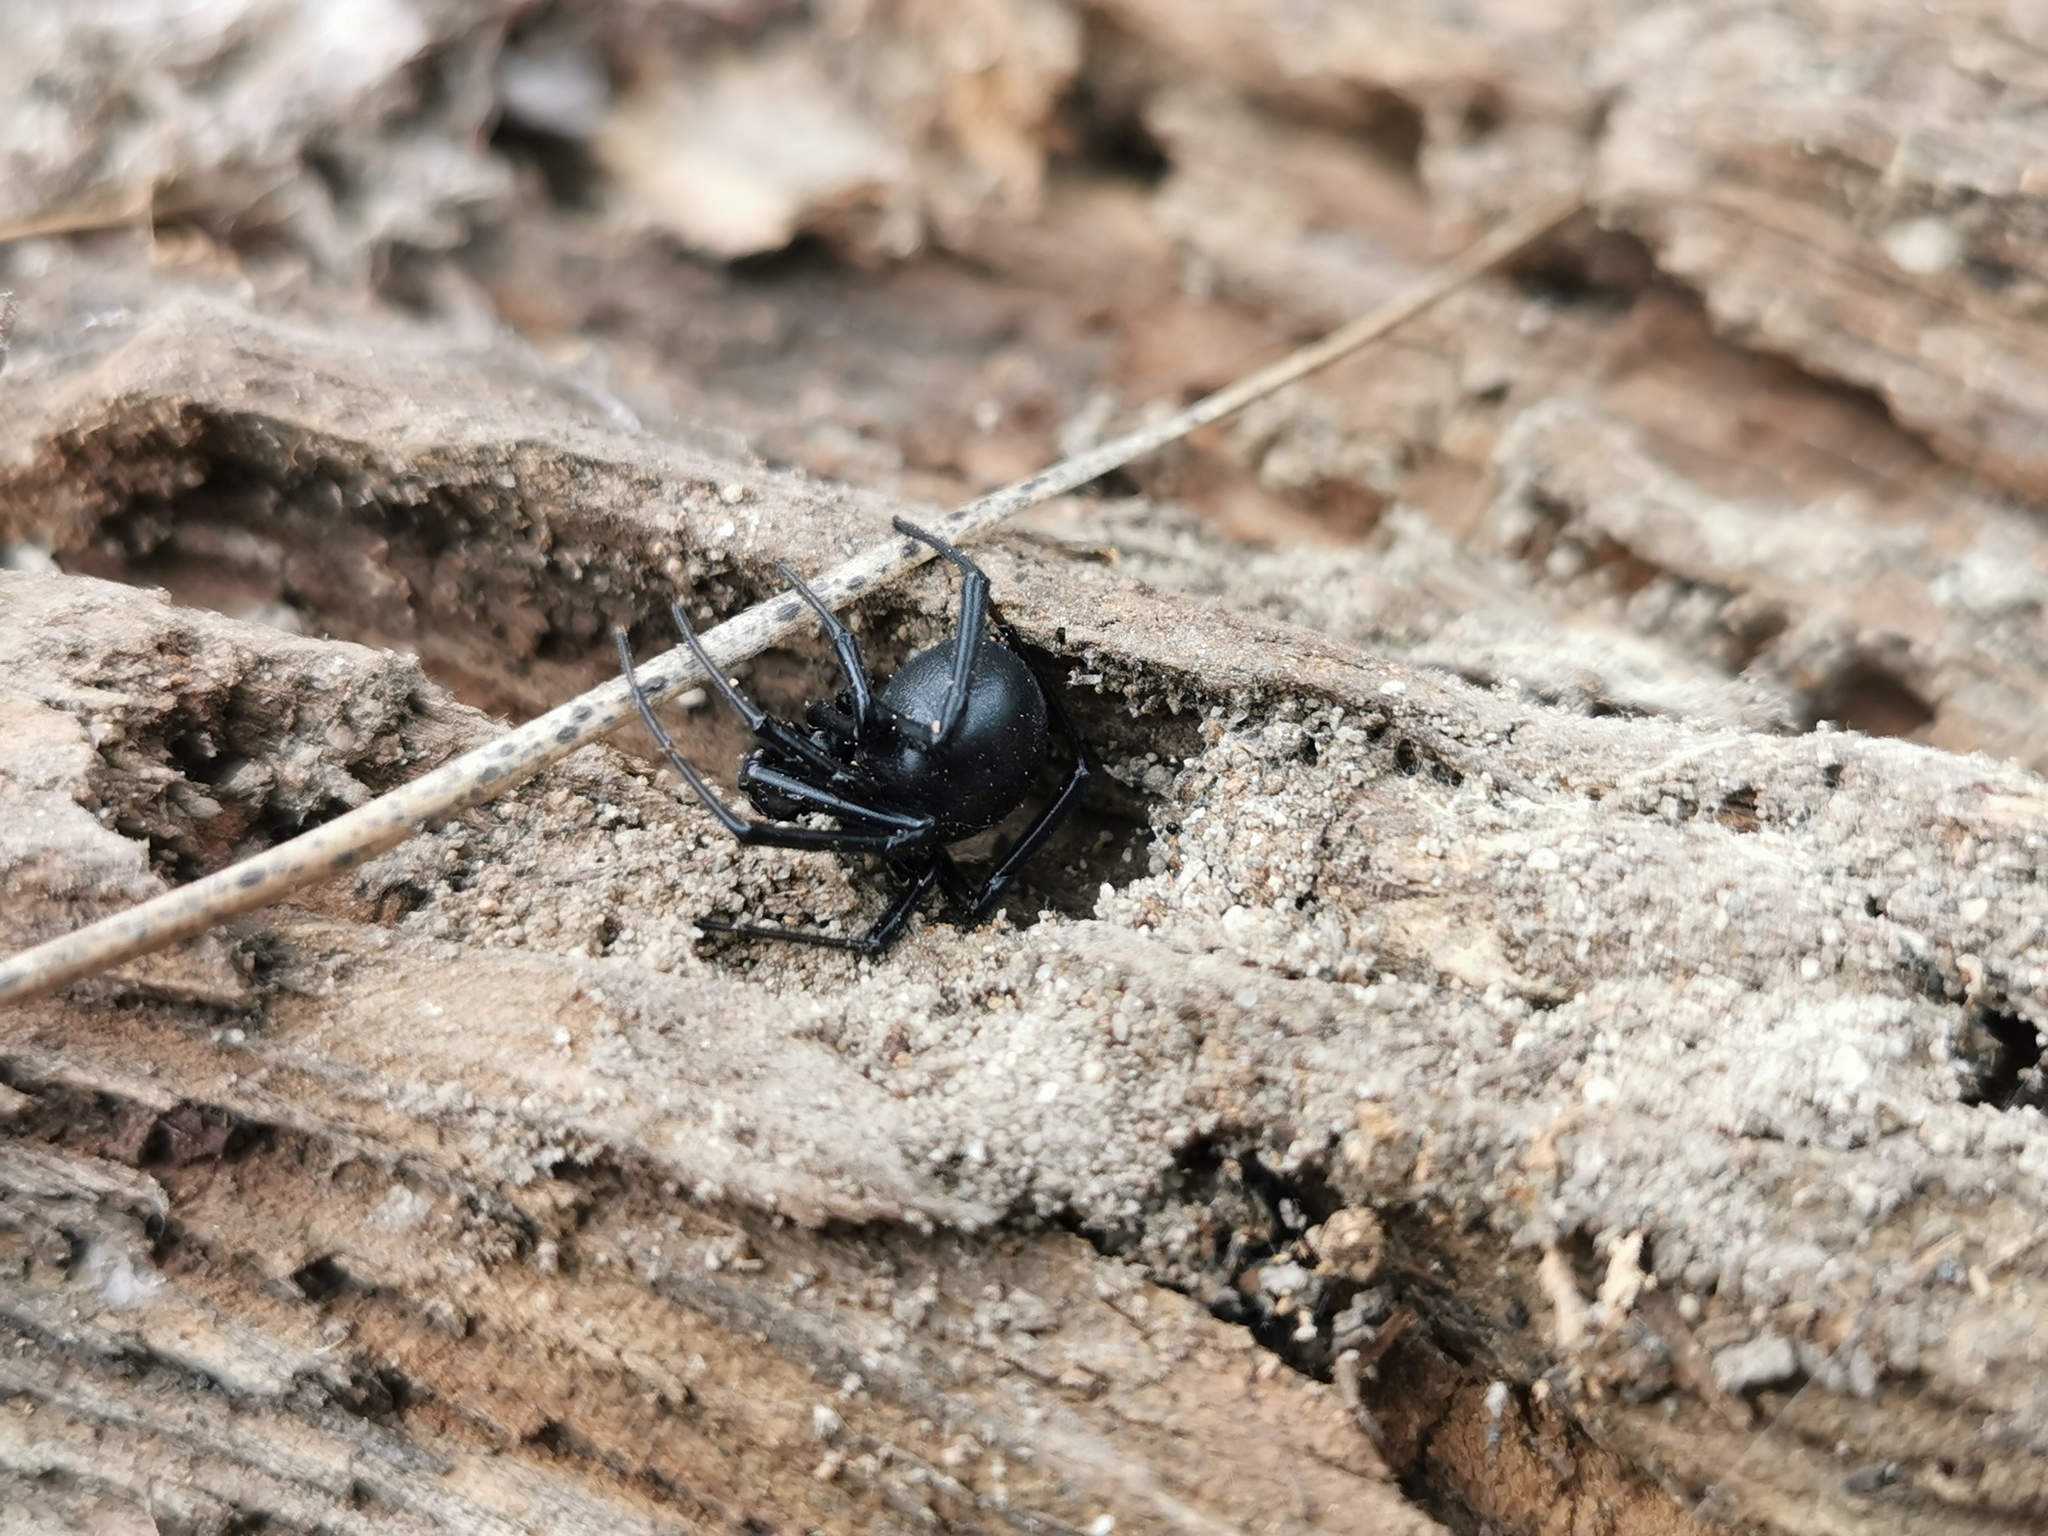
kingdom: Animalia
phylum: Arthropoda
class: Arachnida
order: Araneae
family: Theridiidae
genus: Latrodectus
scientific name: Latrodectus hesperus
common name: Western black widow
